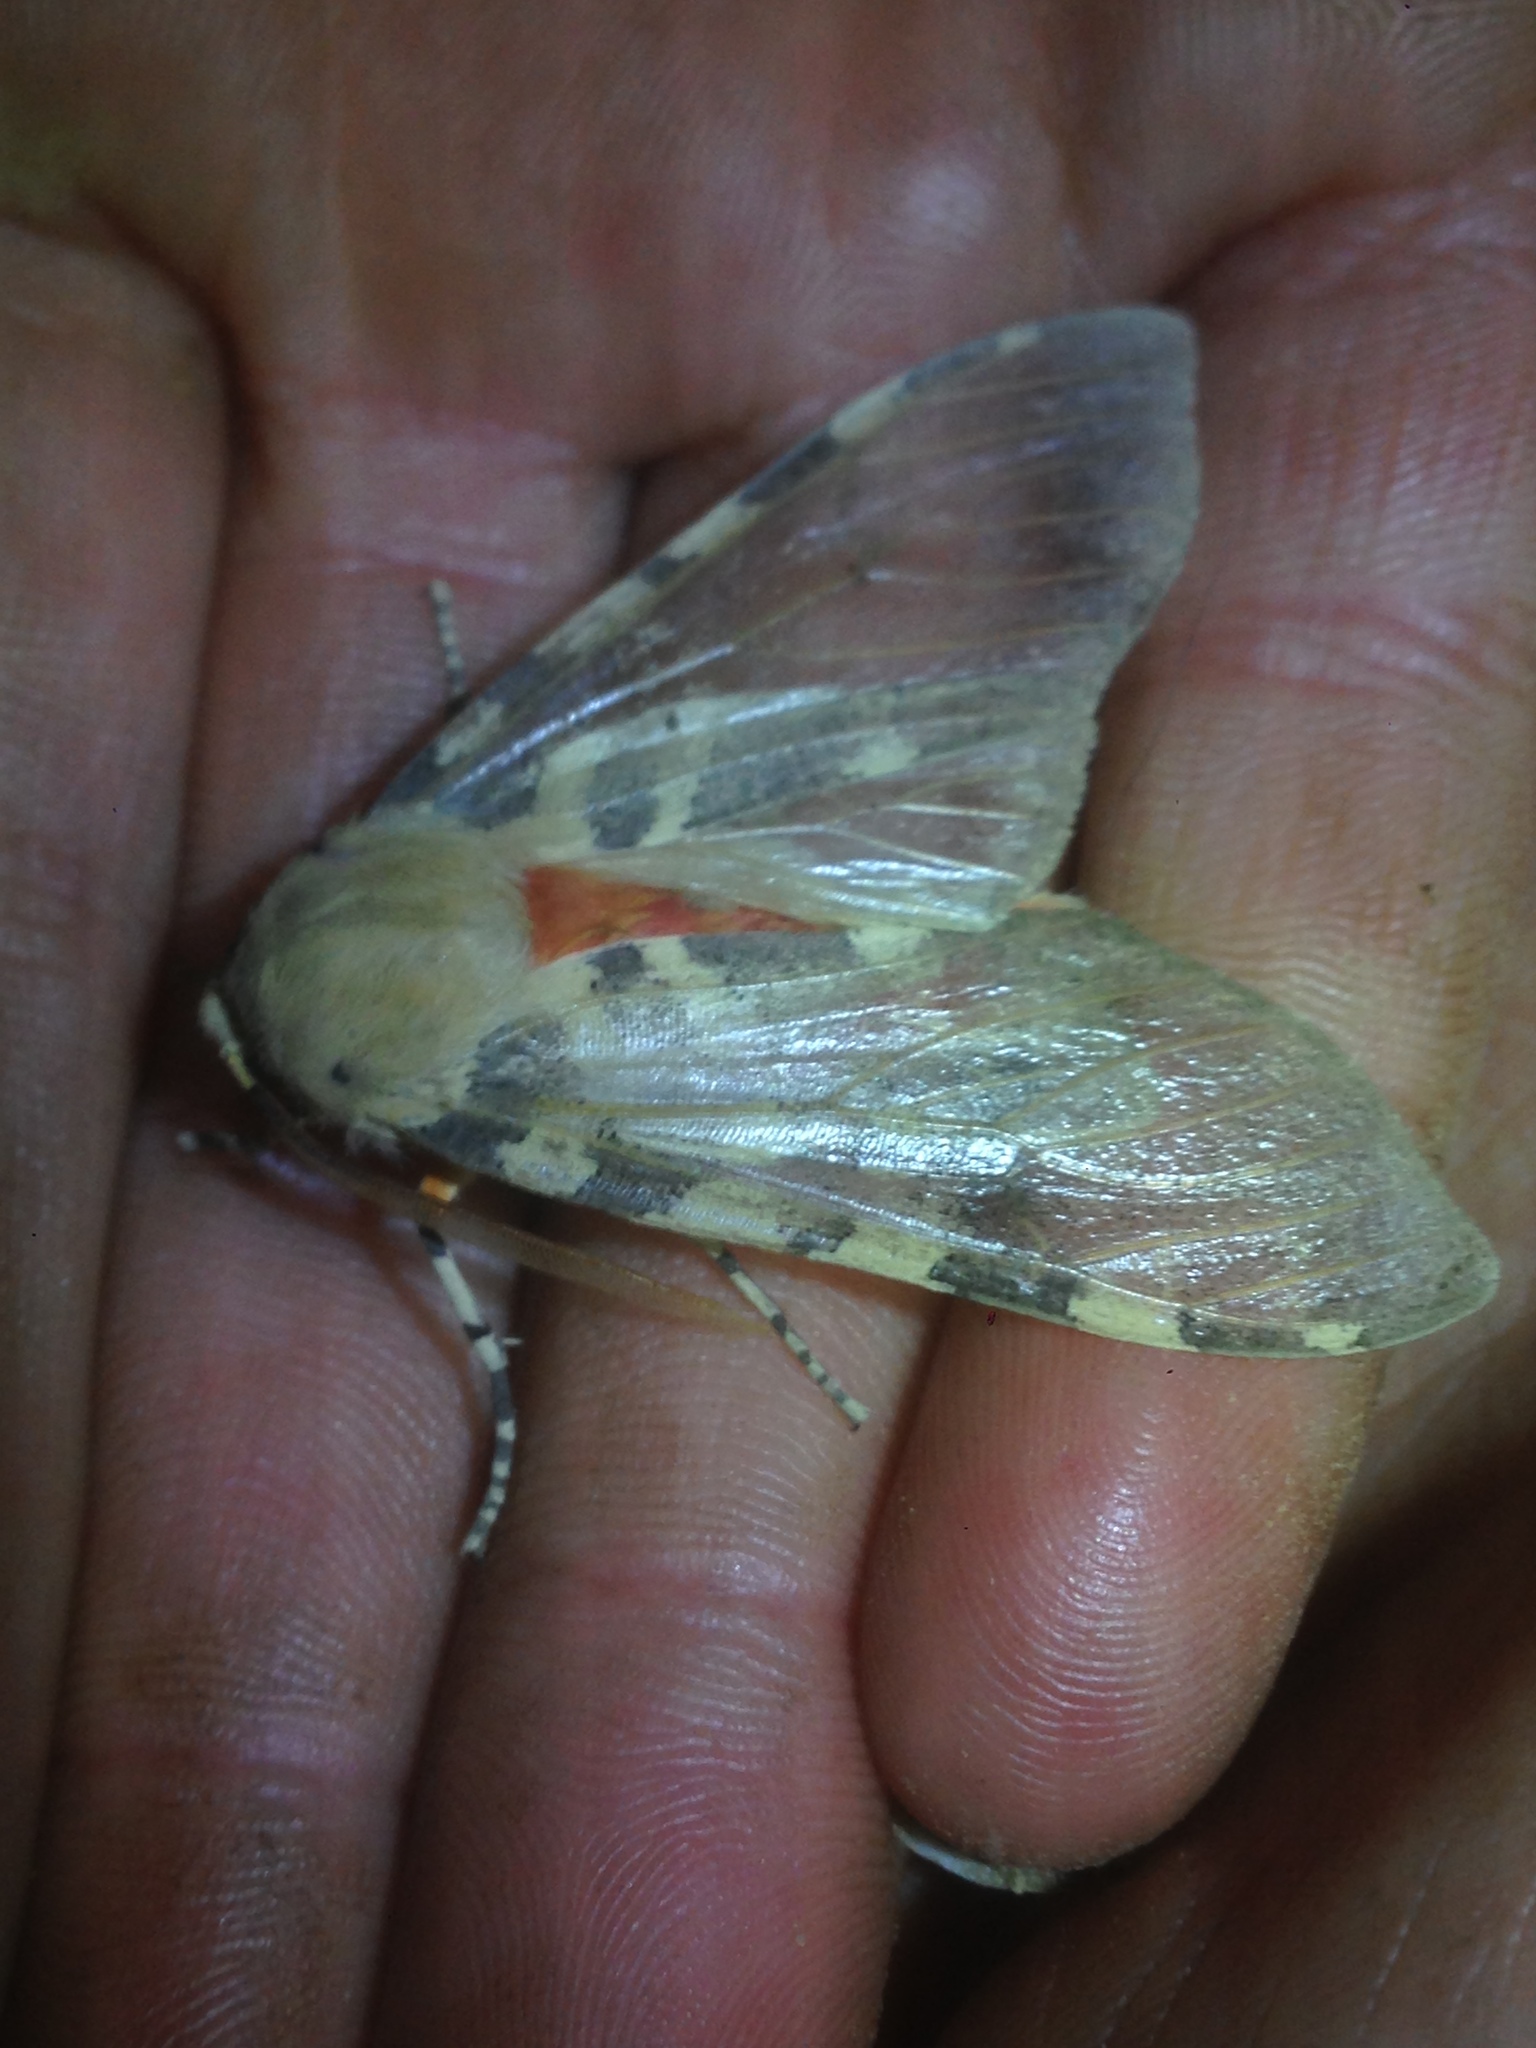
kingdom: Animalia
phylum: Arthropoda
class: Insecta
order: Lepidoptera
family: Erebidae
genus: Hemihyalea
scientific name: Hemihyalea edwardsii
